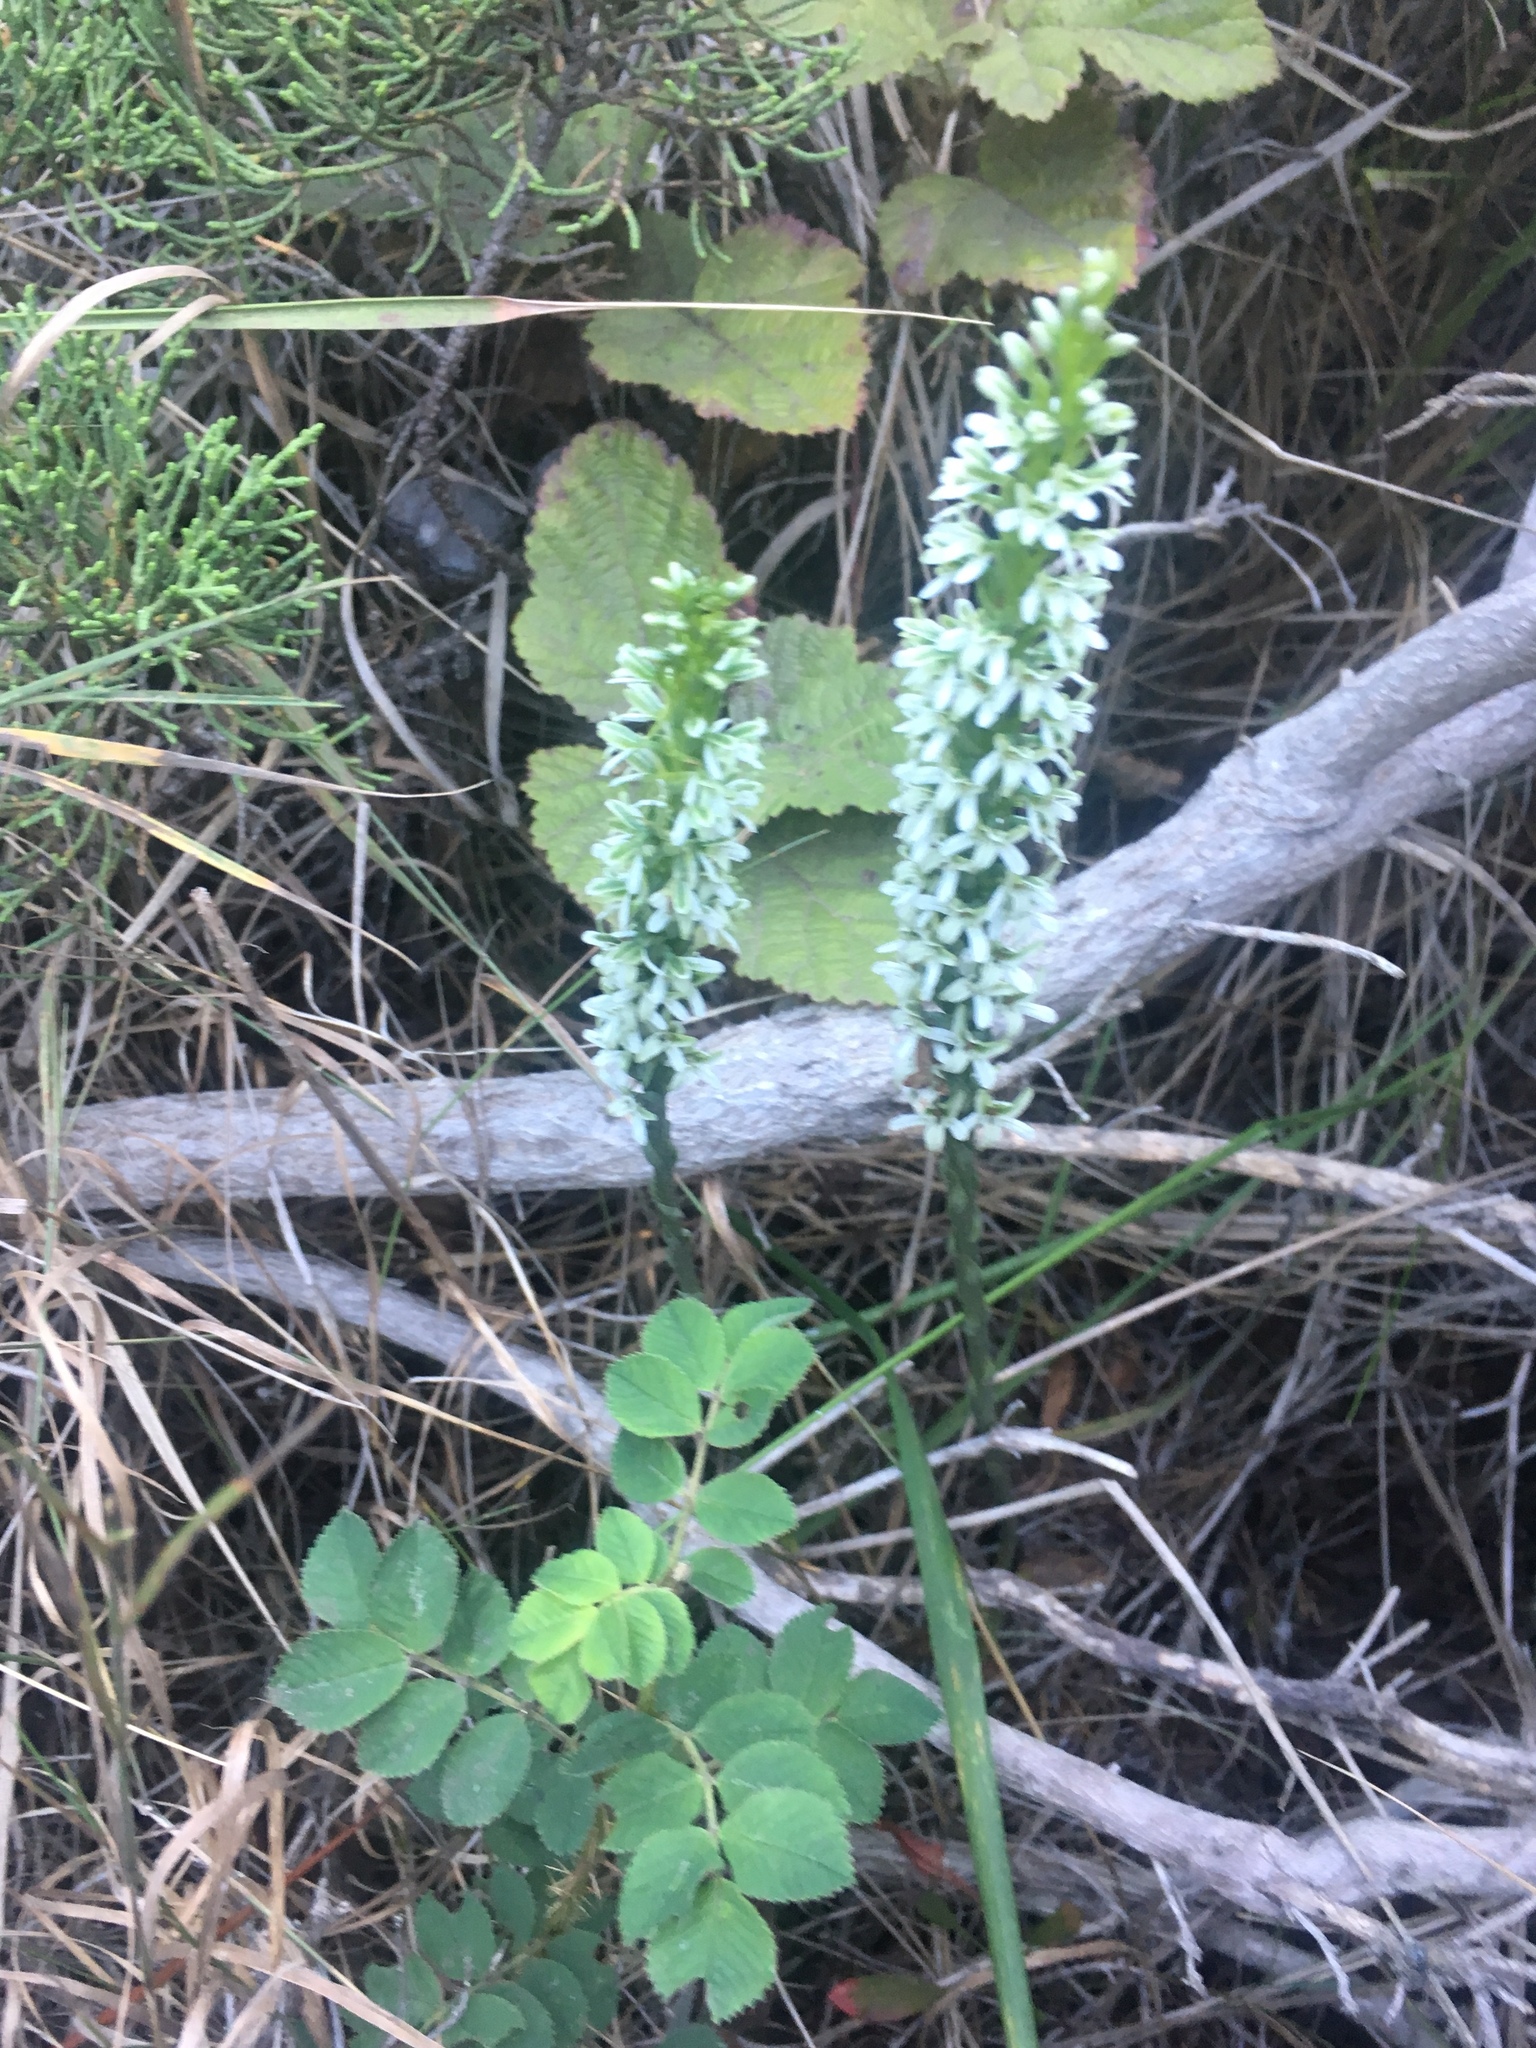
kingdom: Plantae
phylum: Tracheophyta
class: Liliopsida
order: Asparagales
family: Orchidaceae
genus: Platanthera
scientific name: Platanthera elegans
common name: Coast piperia
